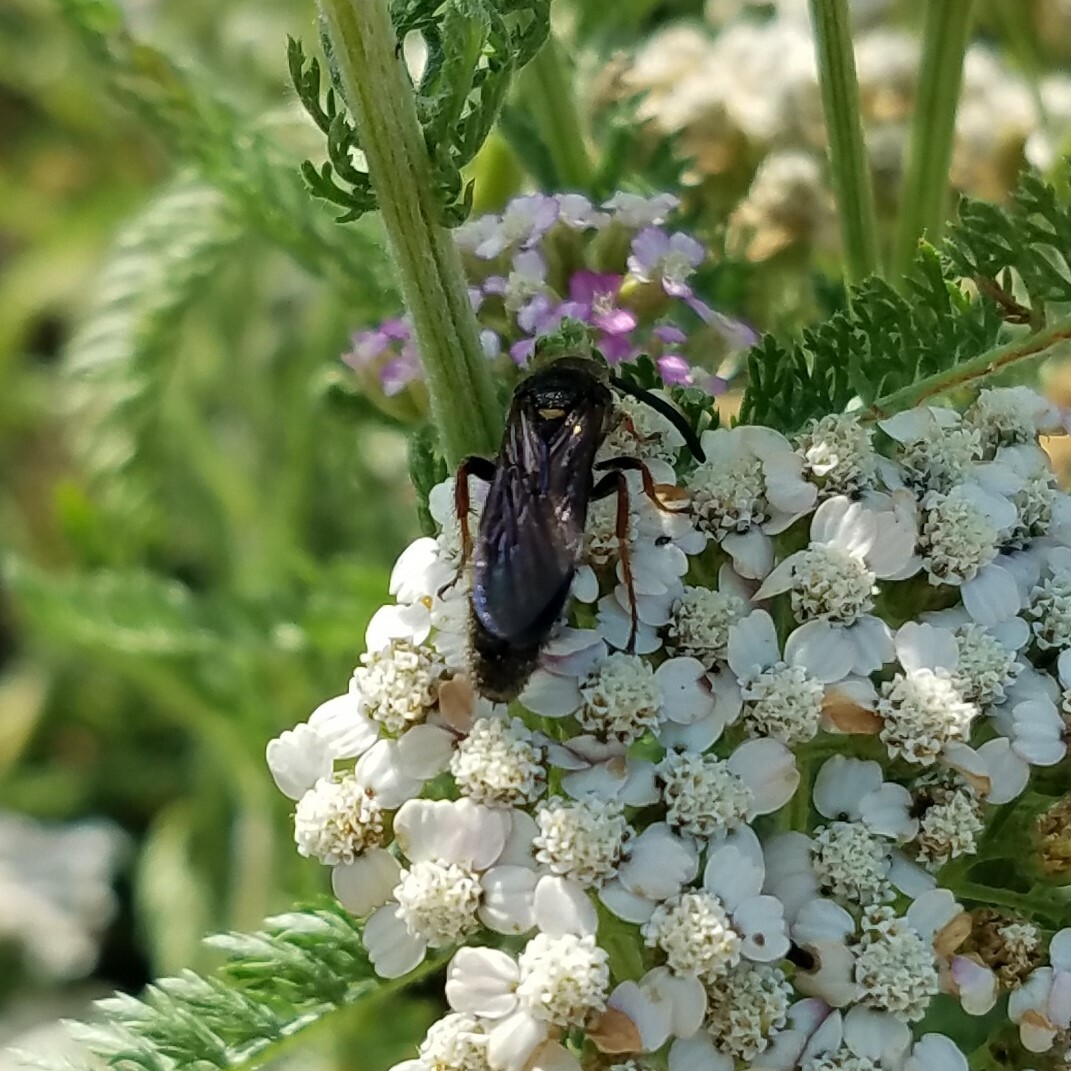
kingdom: Animalia
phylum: Arthropoda
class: Insecta
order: Hymenoptera
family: Scoliidae
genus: Scolia
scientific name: Scolia nobilitata
